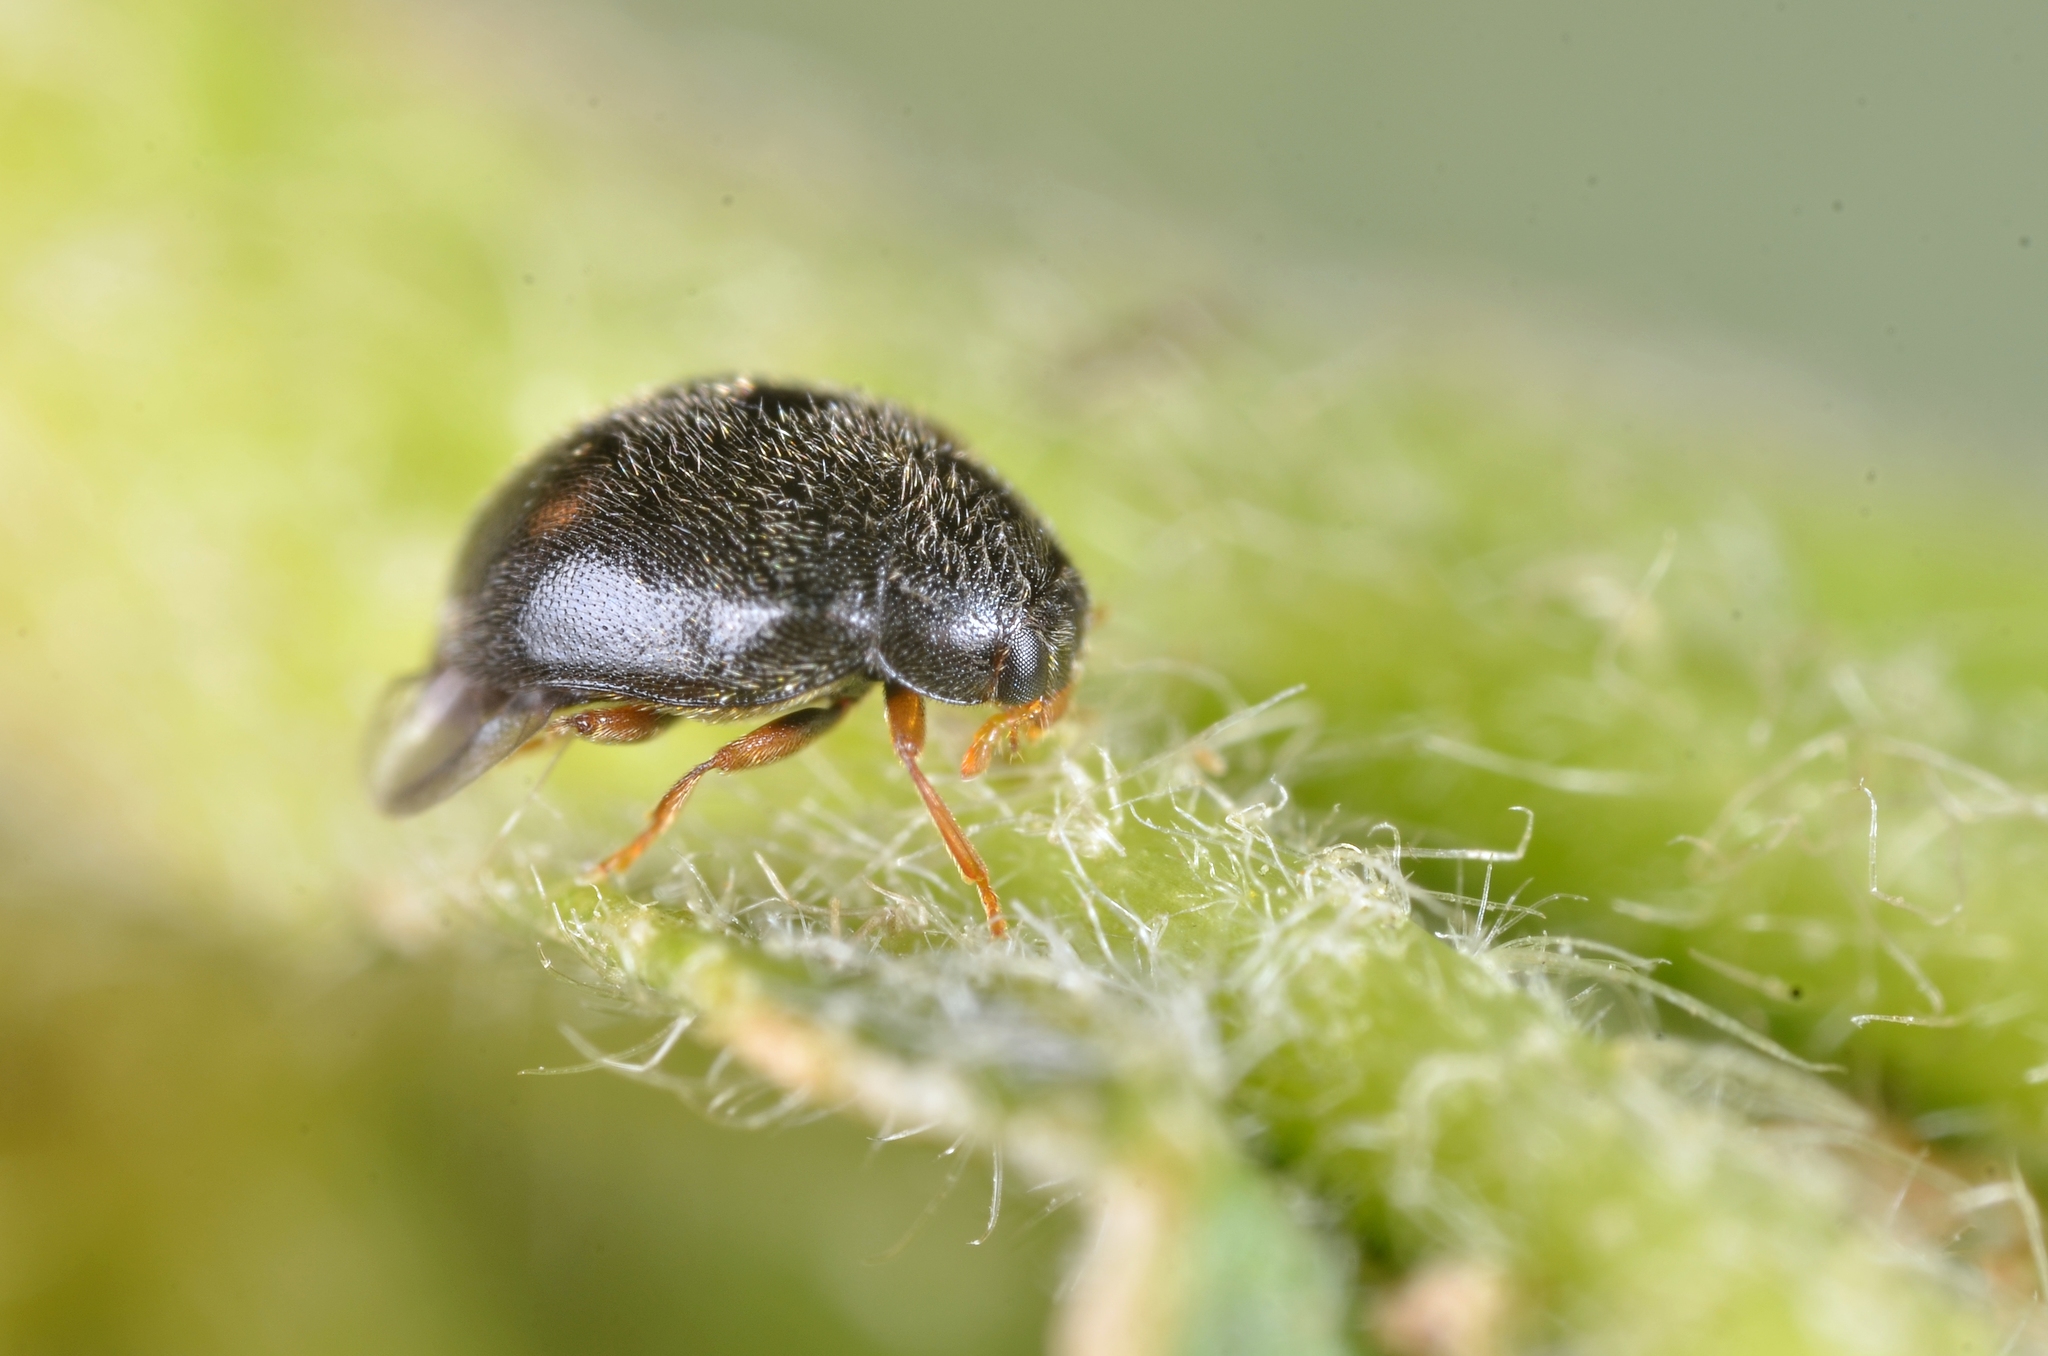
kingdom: Animalia
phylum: Arthropoda
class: Insecta
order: Coleoptera
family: Coccinellidae
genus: Stethorus
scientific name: Stethorus pusillus
